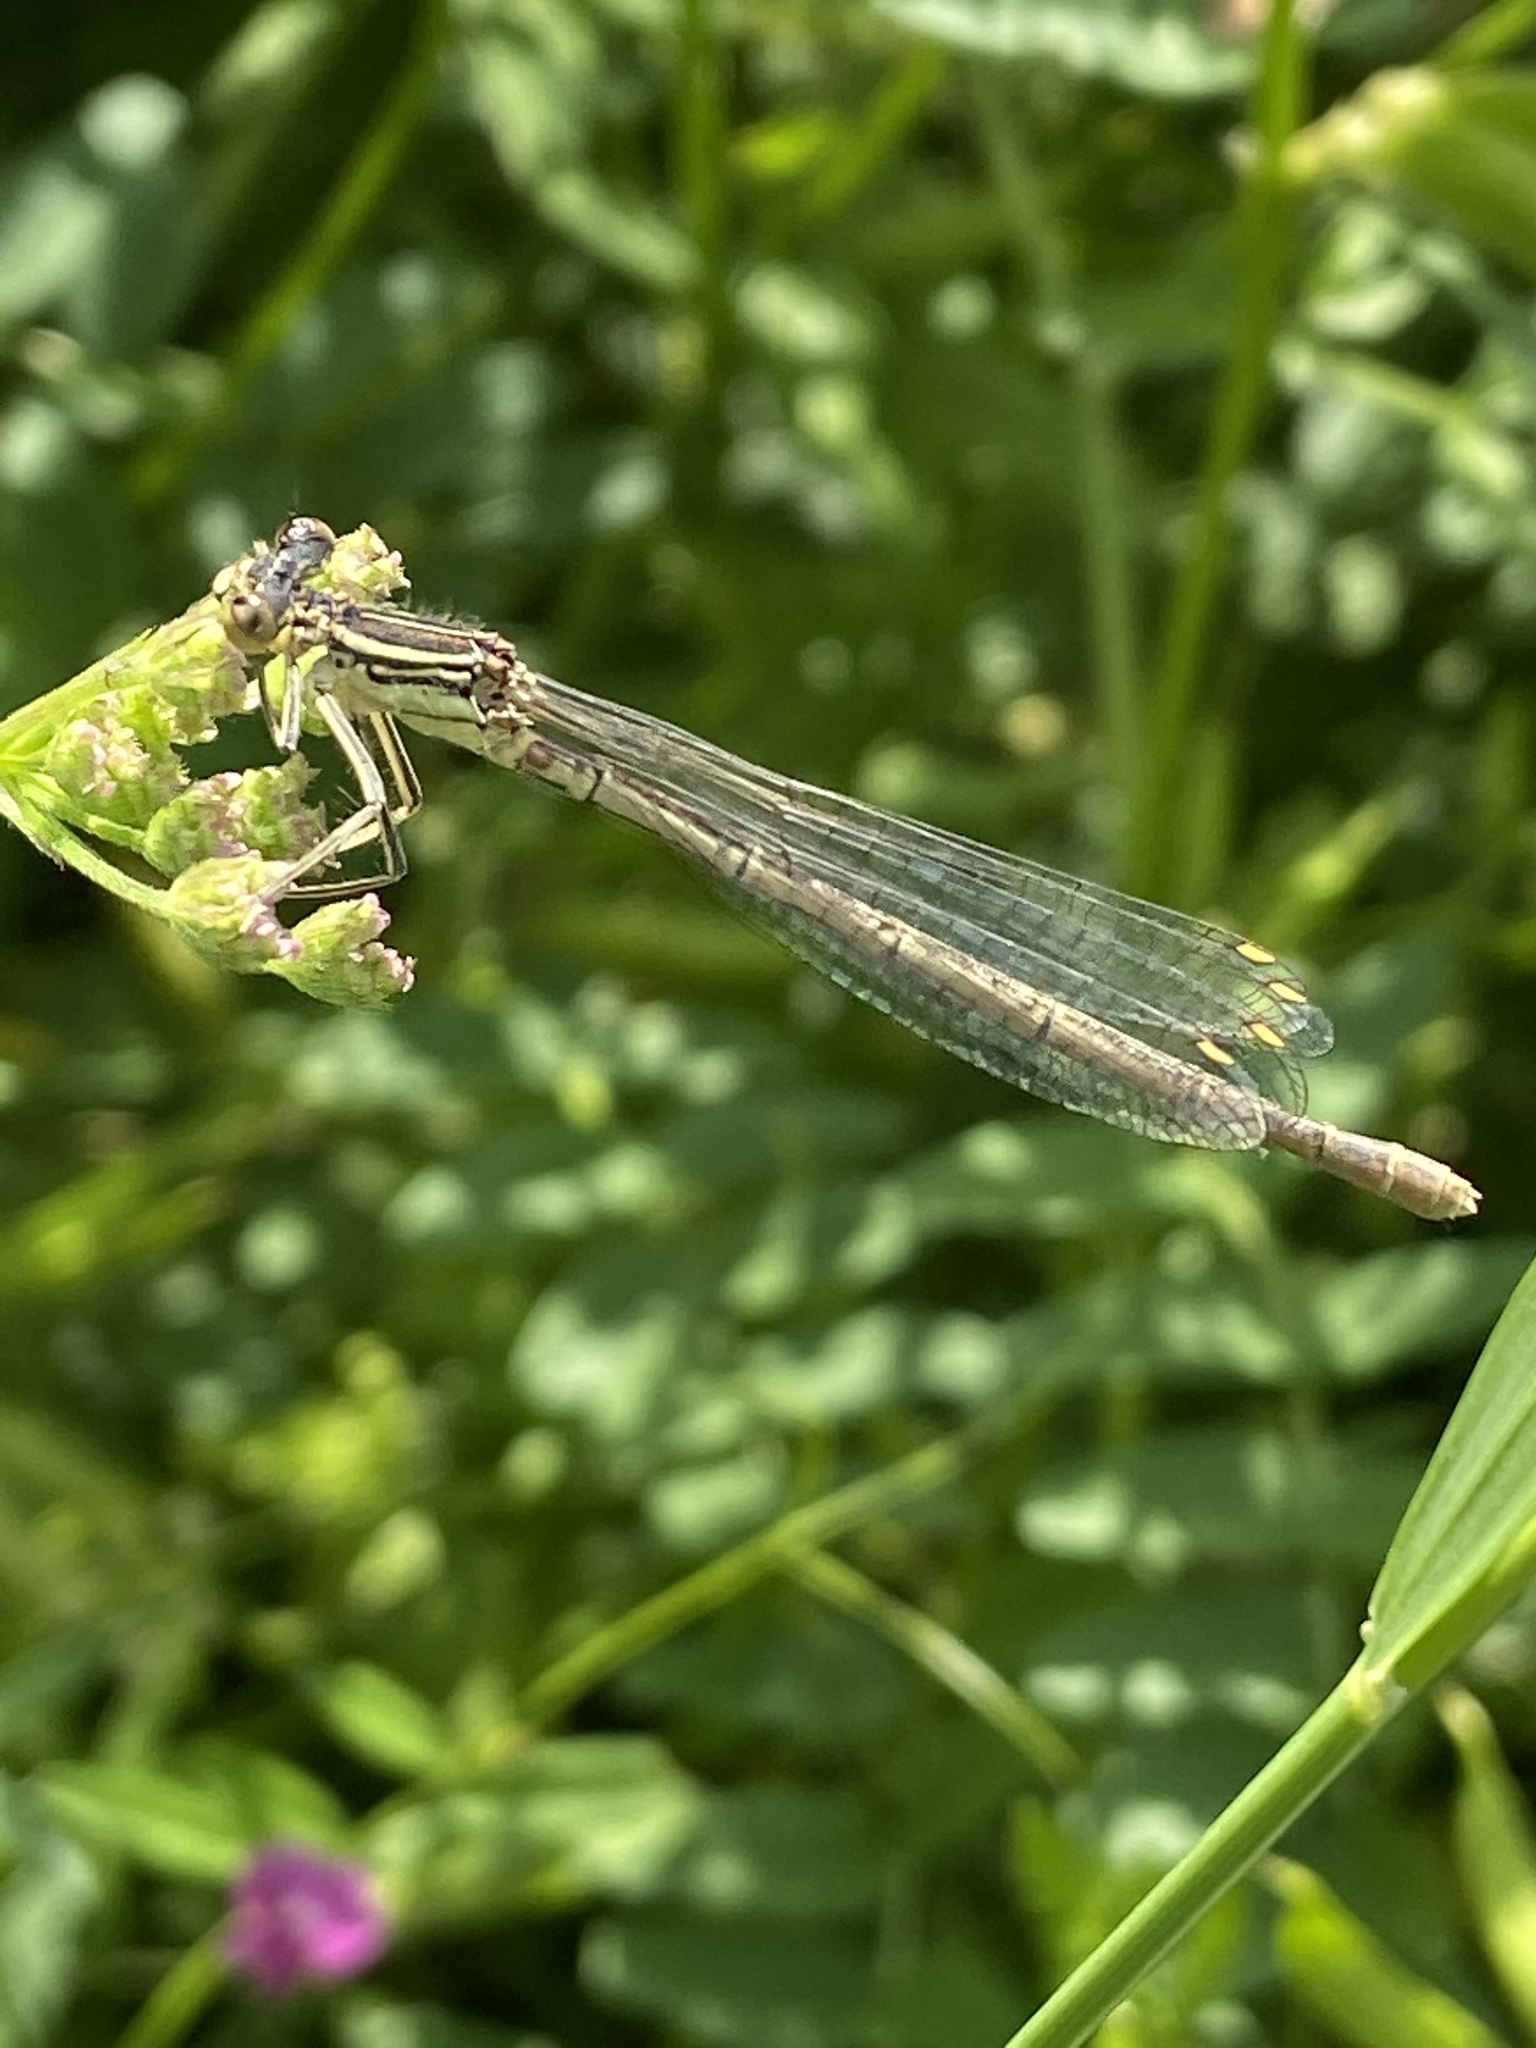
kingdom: Animalia
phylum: Arthropoda
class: Insecta
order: Odonata
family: Platycnemididae
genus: Platycnemis
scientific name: Platycnemis pennipes
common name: White-legged damselfly
